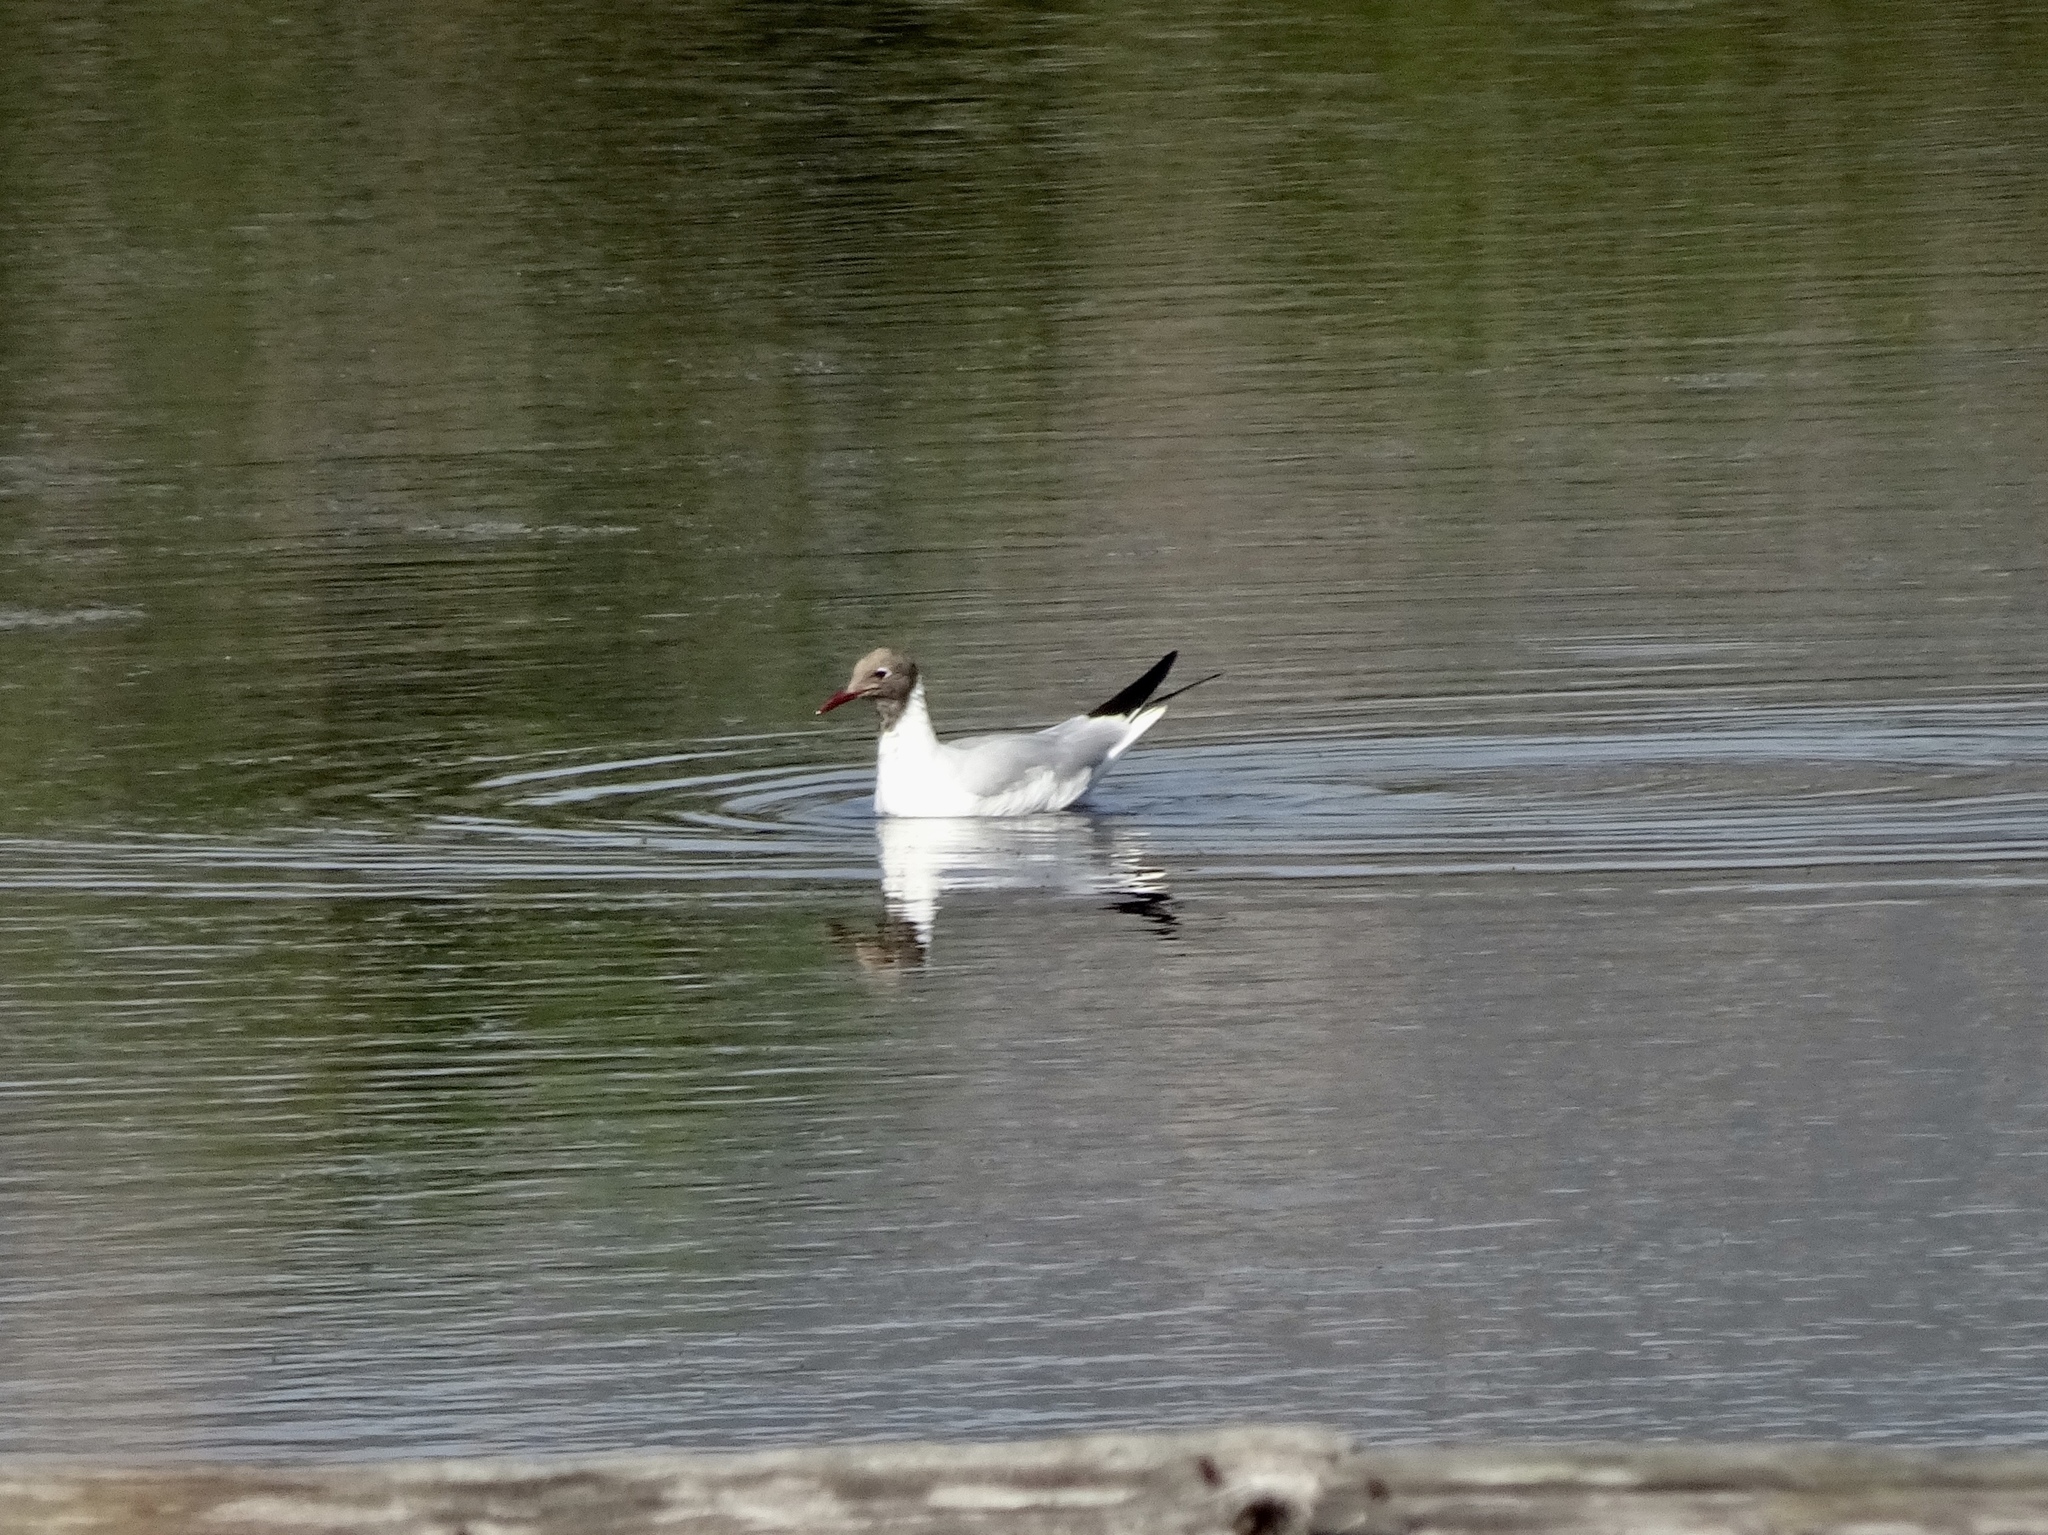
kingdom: Animalia
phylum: Chordata
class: Aves
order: Charadriiformes
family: Laridae
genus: Chroicocephalus
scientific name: Chroicocephalus ridibundus
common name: Black-headed gull
